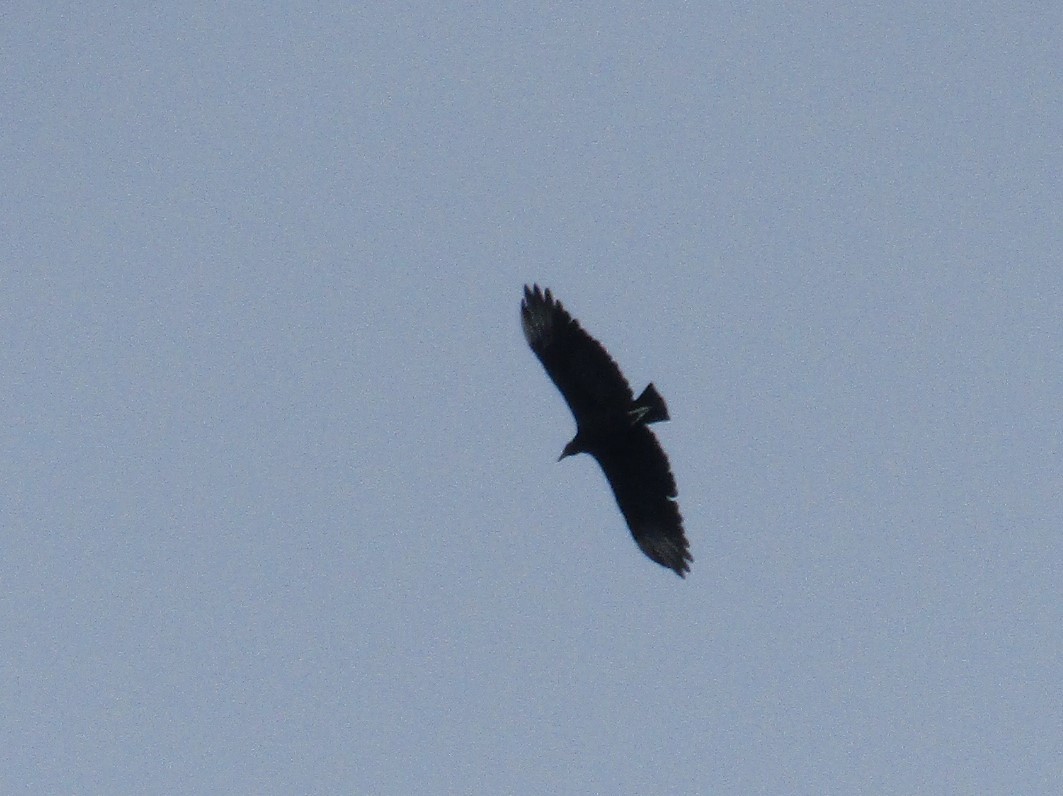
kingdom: Animalia
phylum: Chordata
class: Aves
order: Accipitriformes
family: Cathartidae
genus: Coragyps
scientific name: Coragyps atratus
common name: Black vulture
